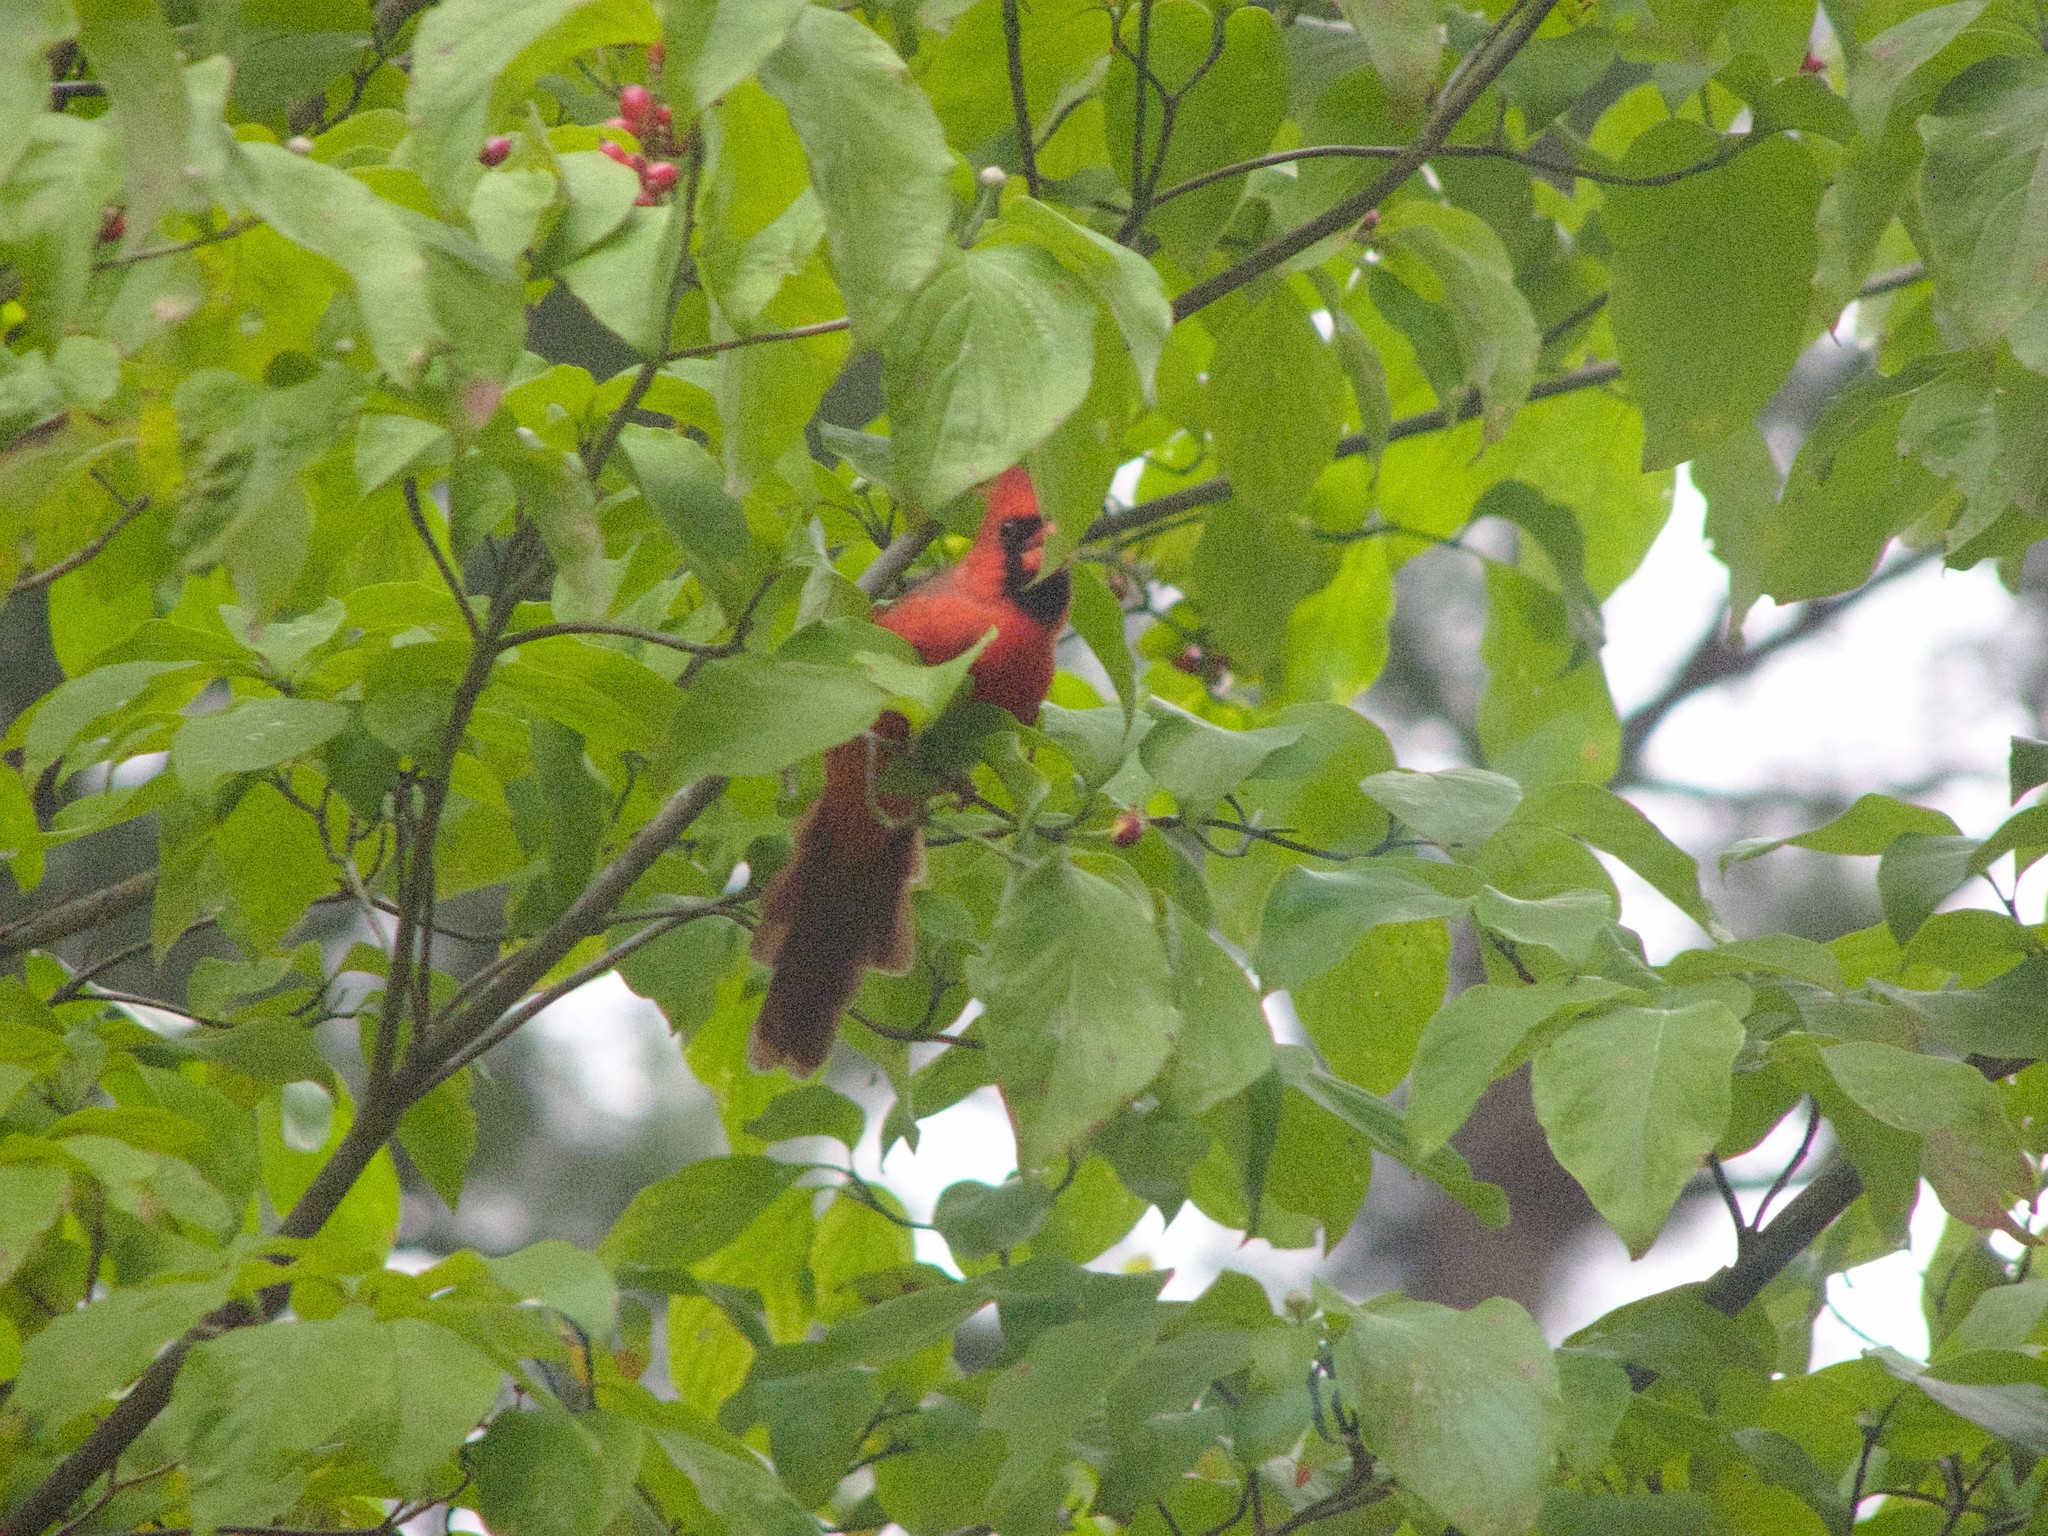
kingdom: Animalia
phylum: Chordata
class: Aves
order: Passeriformes
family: Cardinalidae
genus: Cardinalis
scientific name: Cardinalis cardinalis
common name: Northern cardinal
